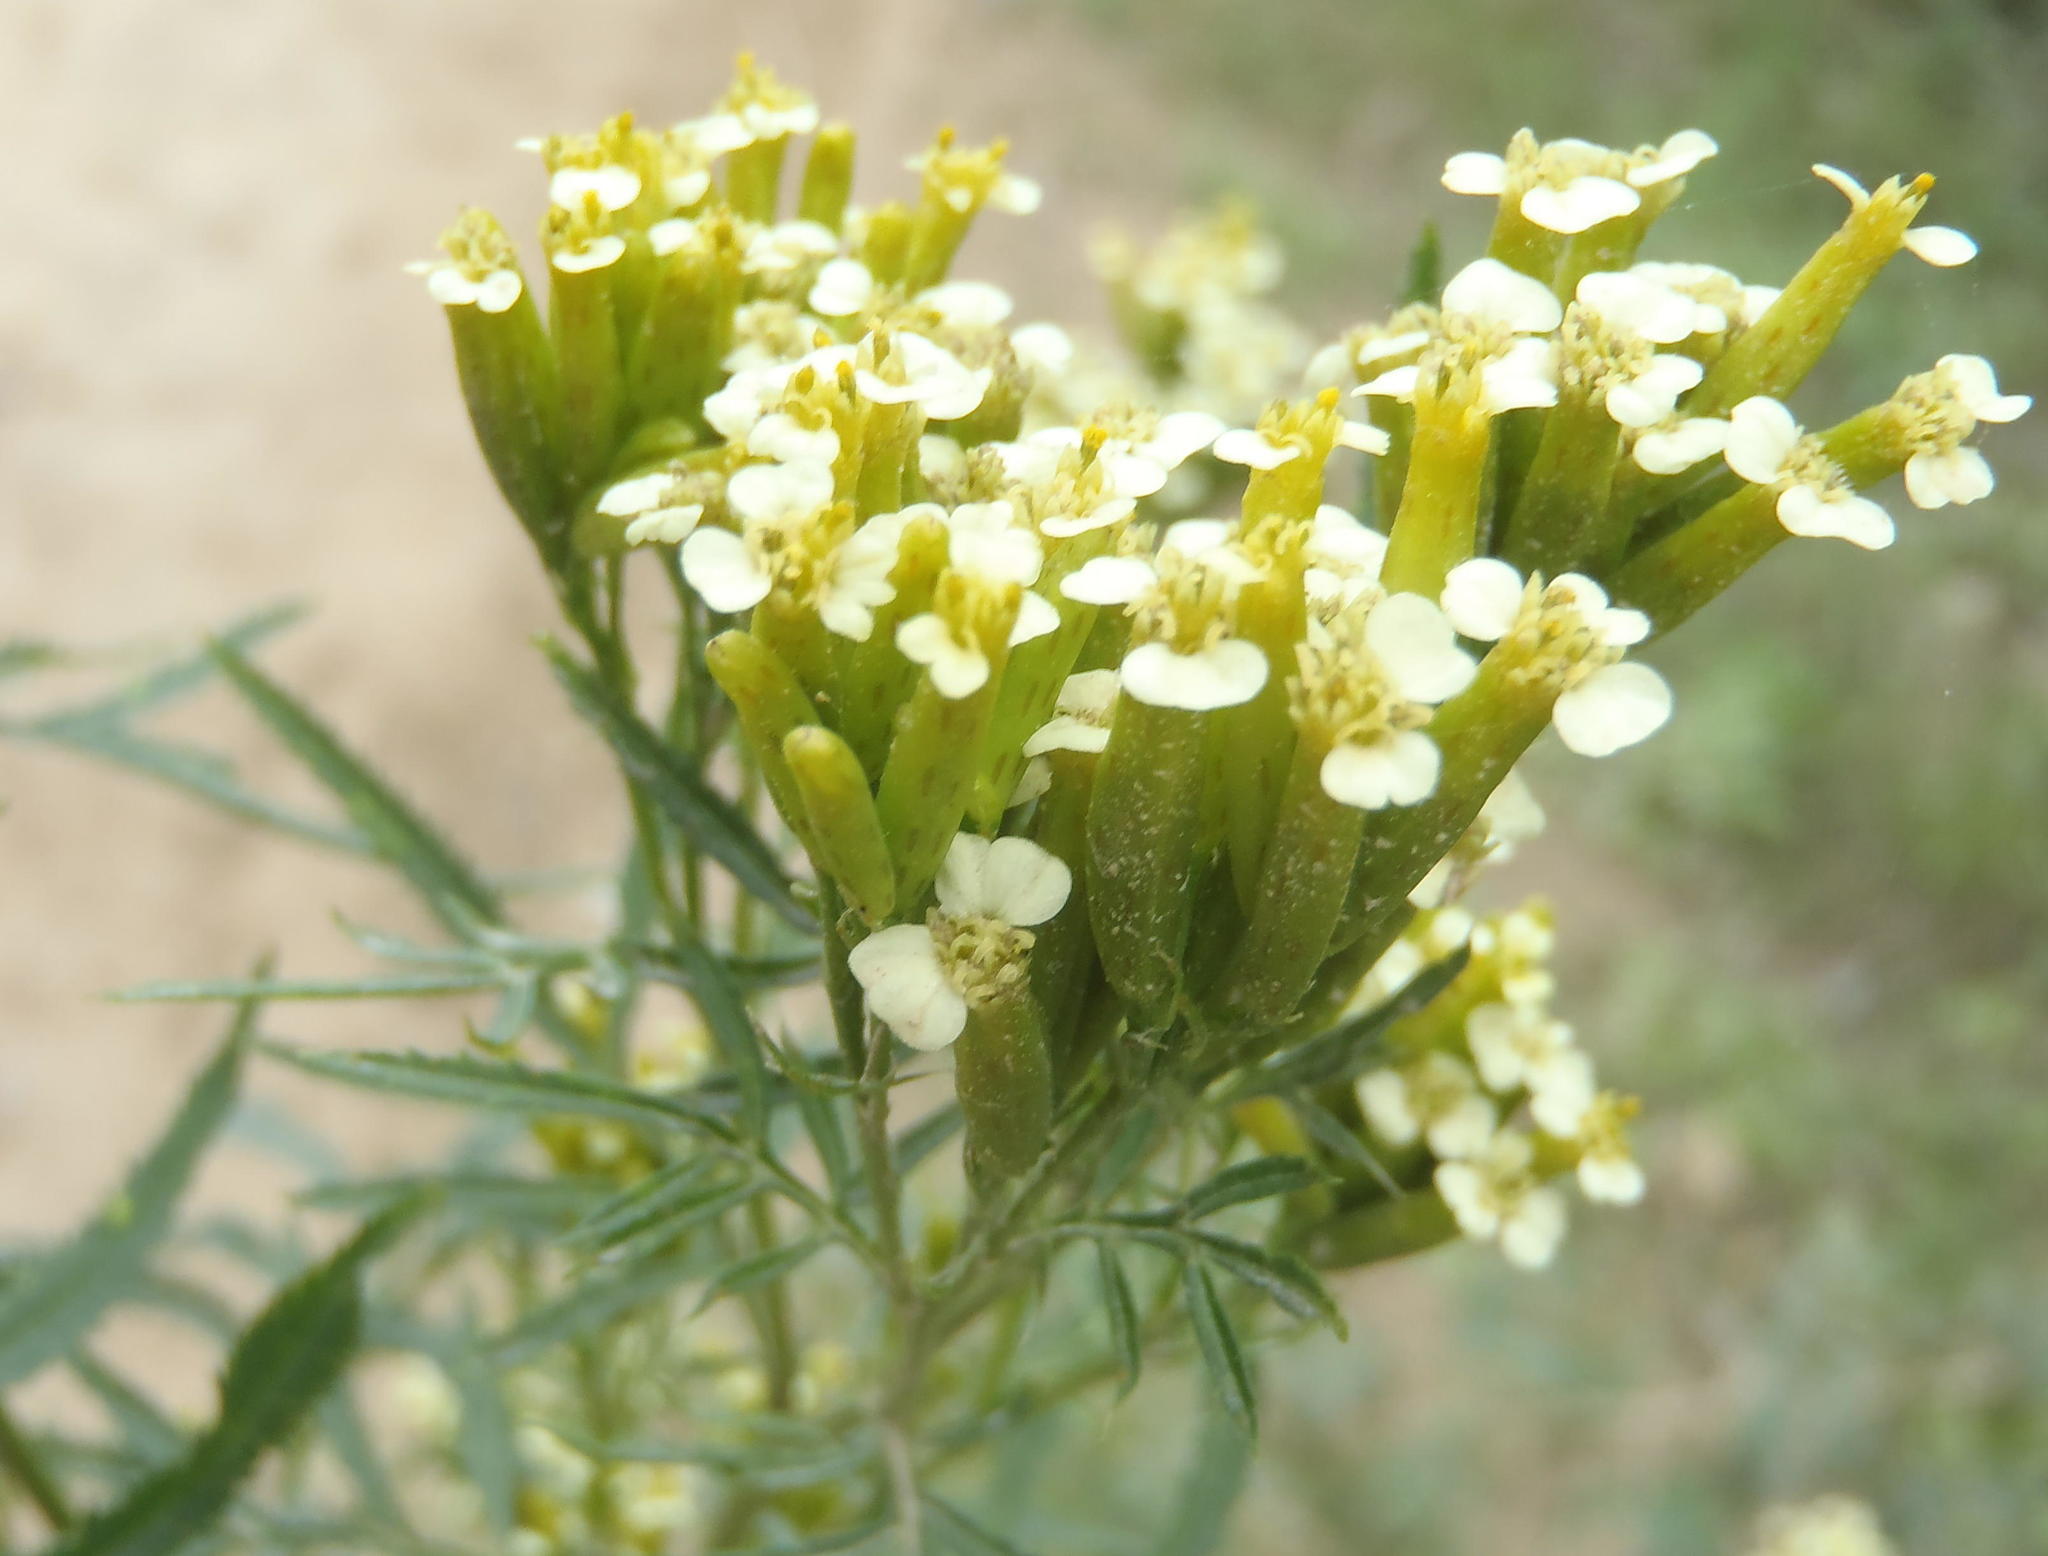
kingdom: Plantae
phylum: Tracheophyta
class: Magnoliopsida
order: Asterales
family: Asteraceae
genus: Tagetes
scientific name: Tagetes minuta
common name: Muster john henry
